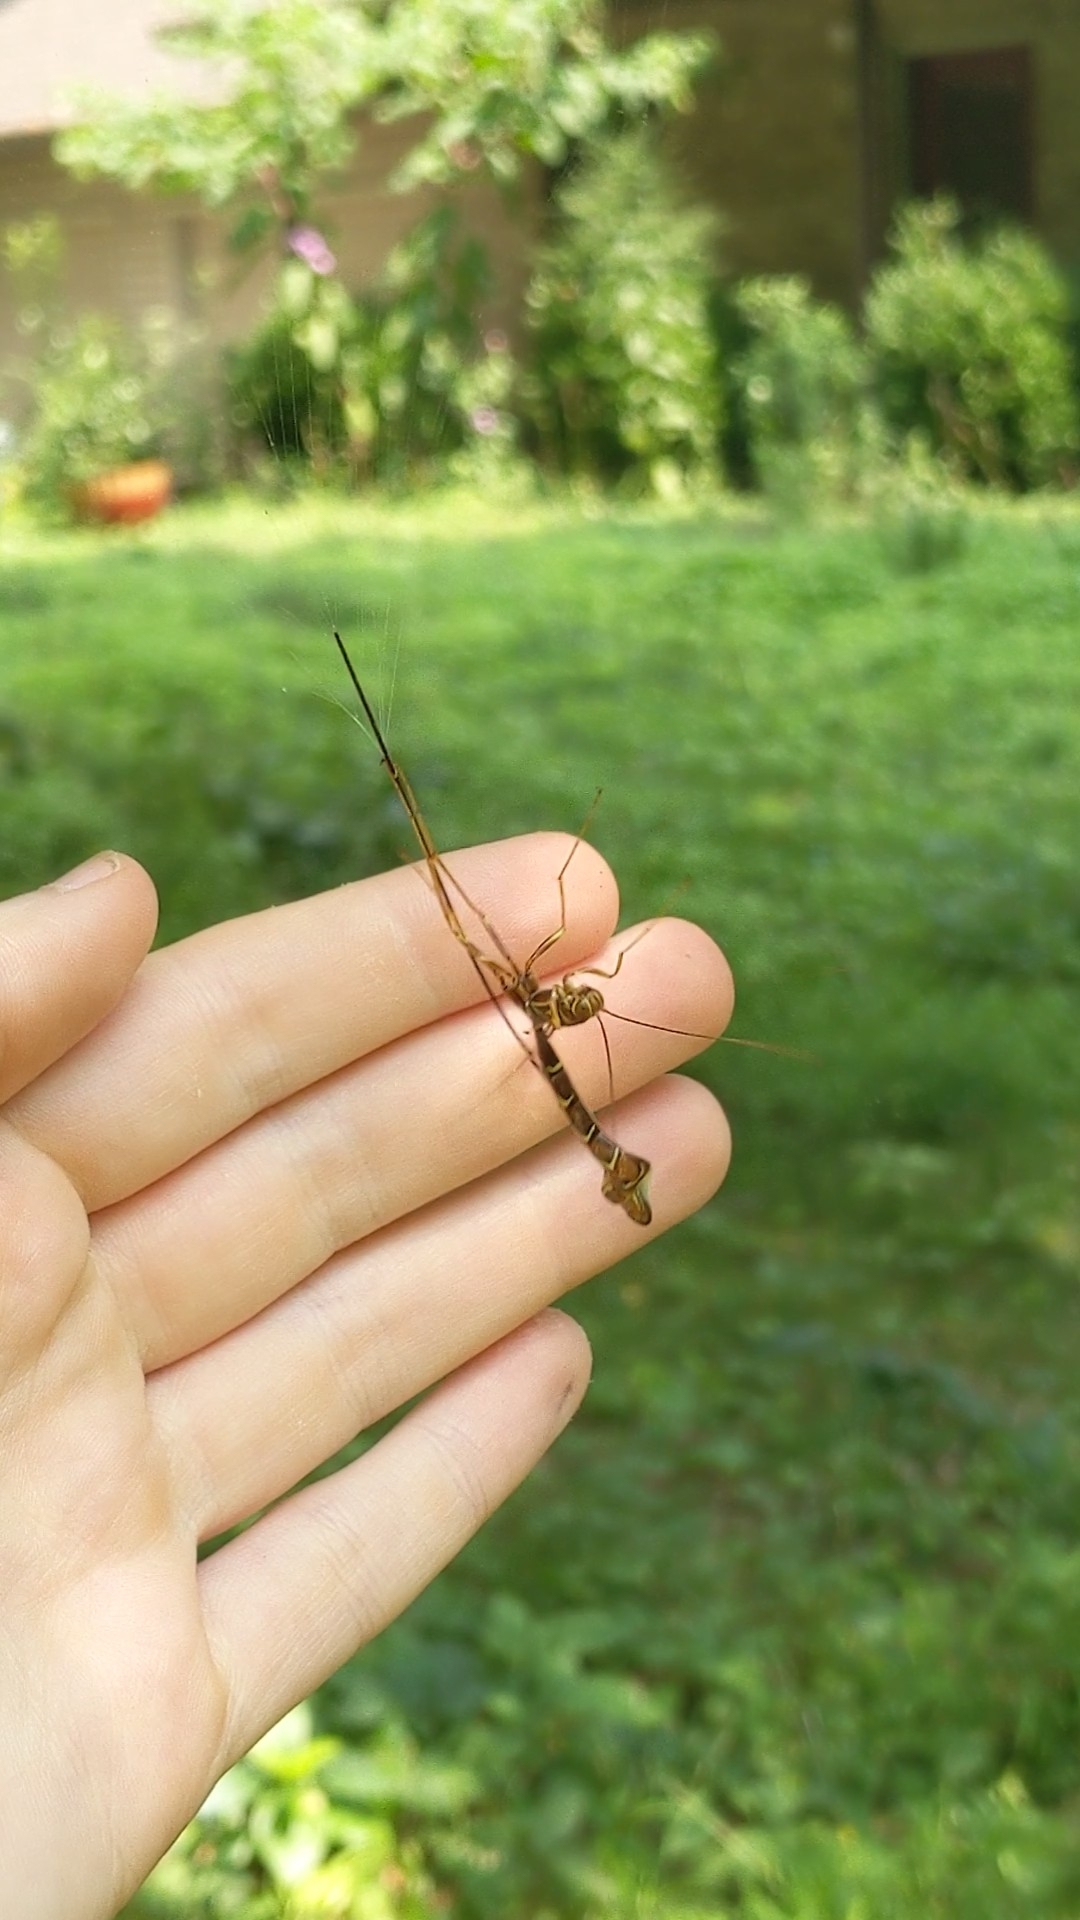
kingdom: Animalia
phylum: Arthropoda
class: Insecta
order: Hymenoptera
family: Ichneumonidae
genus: Megarhyssa
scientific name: Megarhyssa macrura
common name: Long-tailed giant ichneumonid wasp
